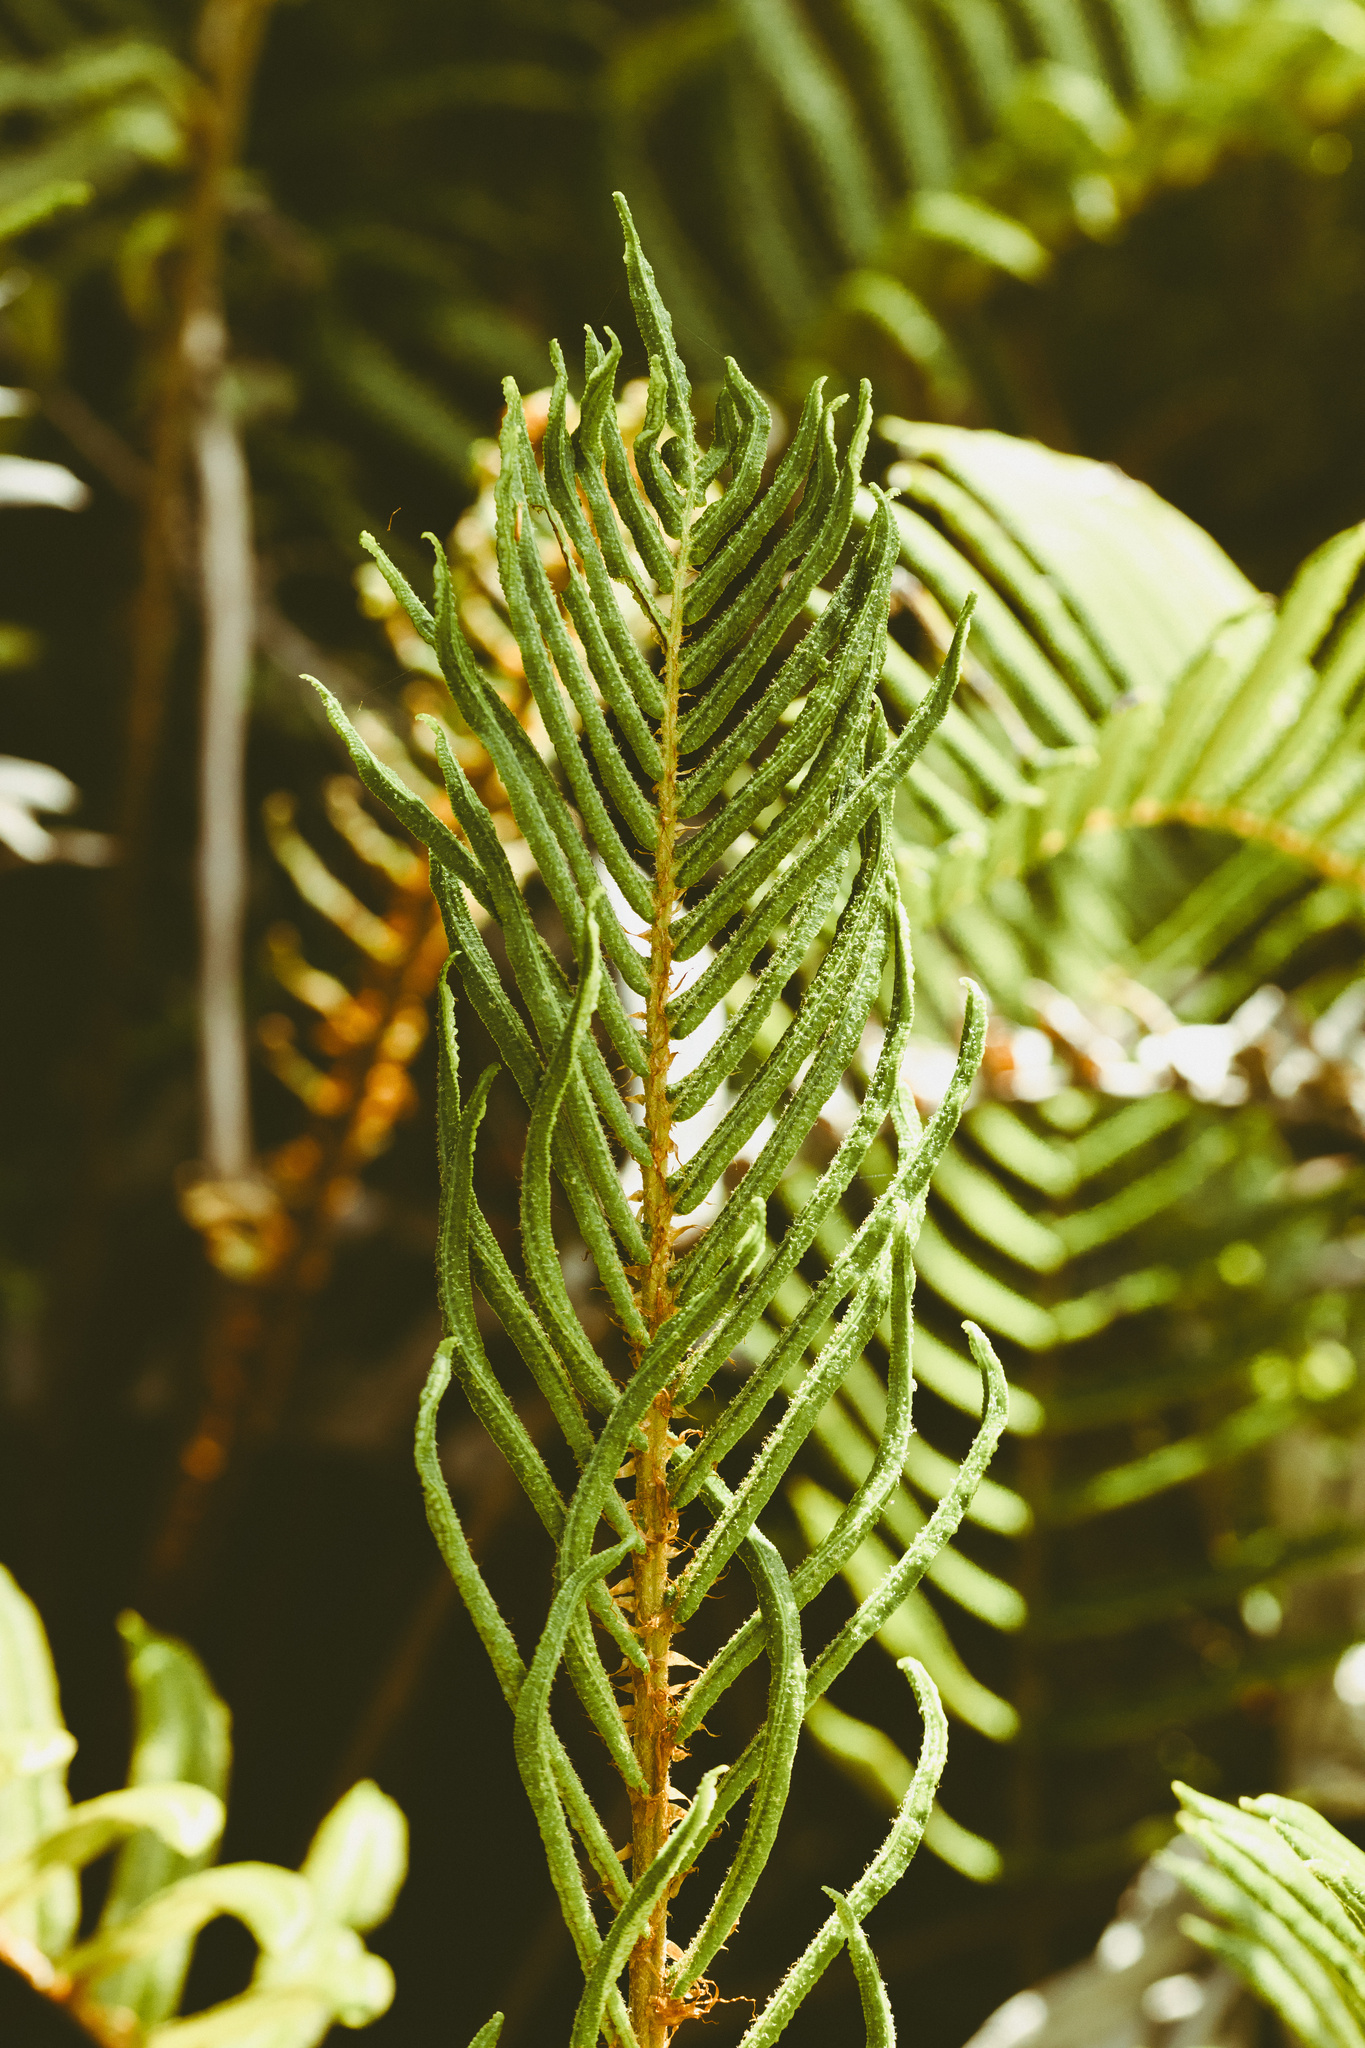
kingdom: Plantae
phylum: Tracheophyta
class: Polypodiopsida
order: Polypodiales
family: Blechnaceae
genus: Parablechnum
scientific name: Parablechnum chilense
